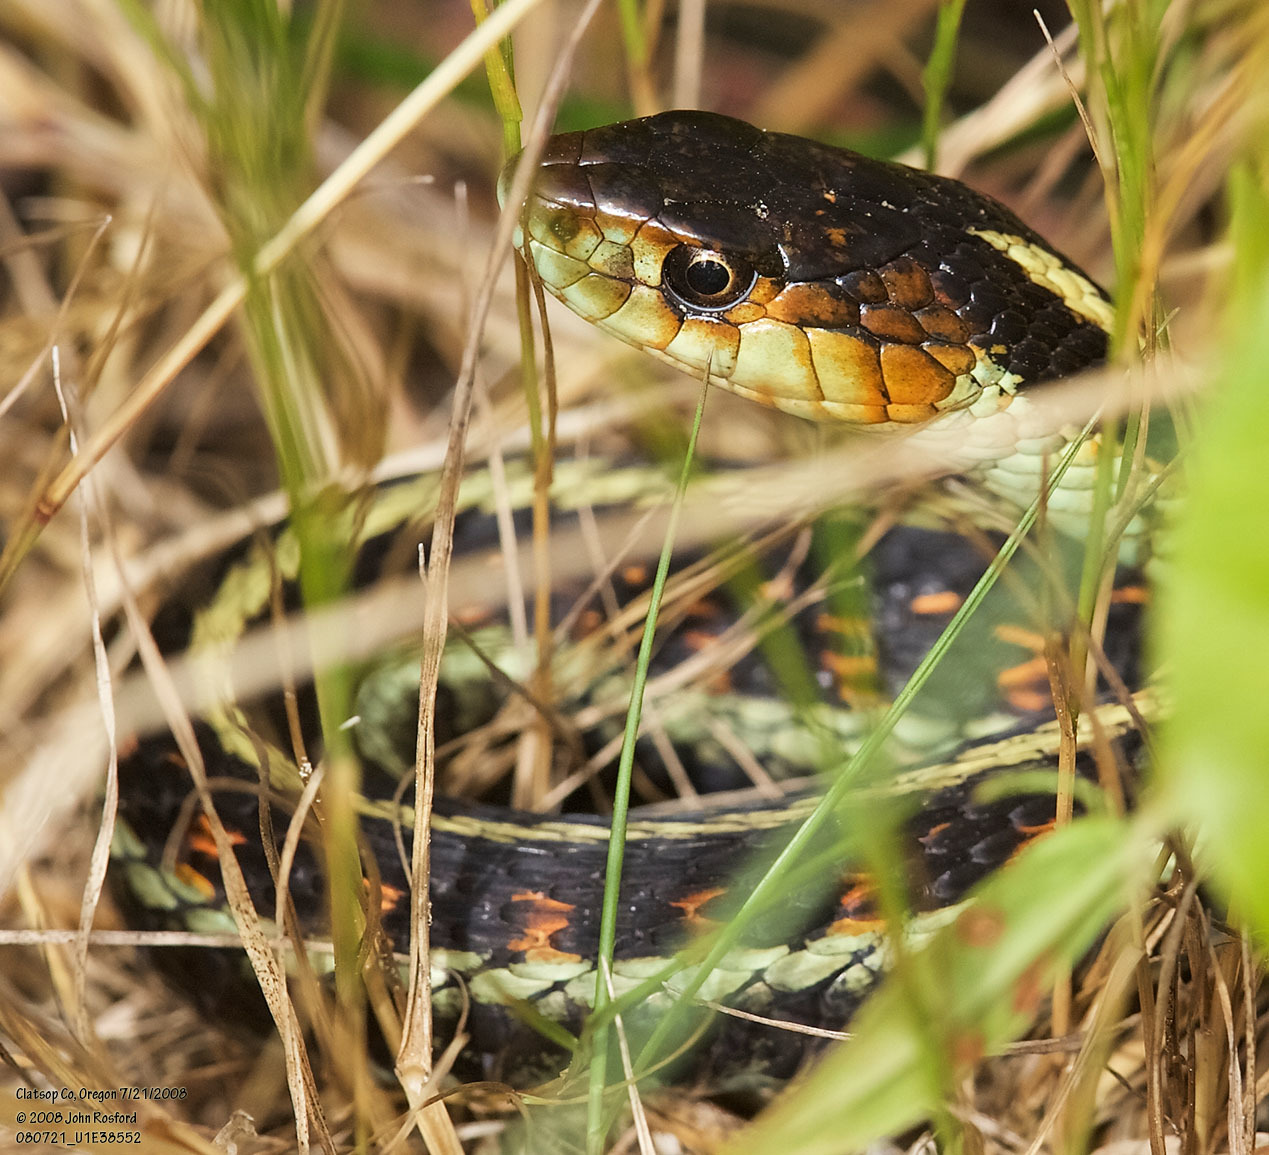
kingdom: Animalia
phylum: Chordata
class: Squamata
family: Colubridae
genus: Thamnophis
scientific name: Thamnophis sirtalis
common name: Common garter snake
